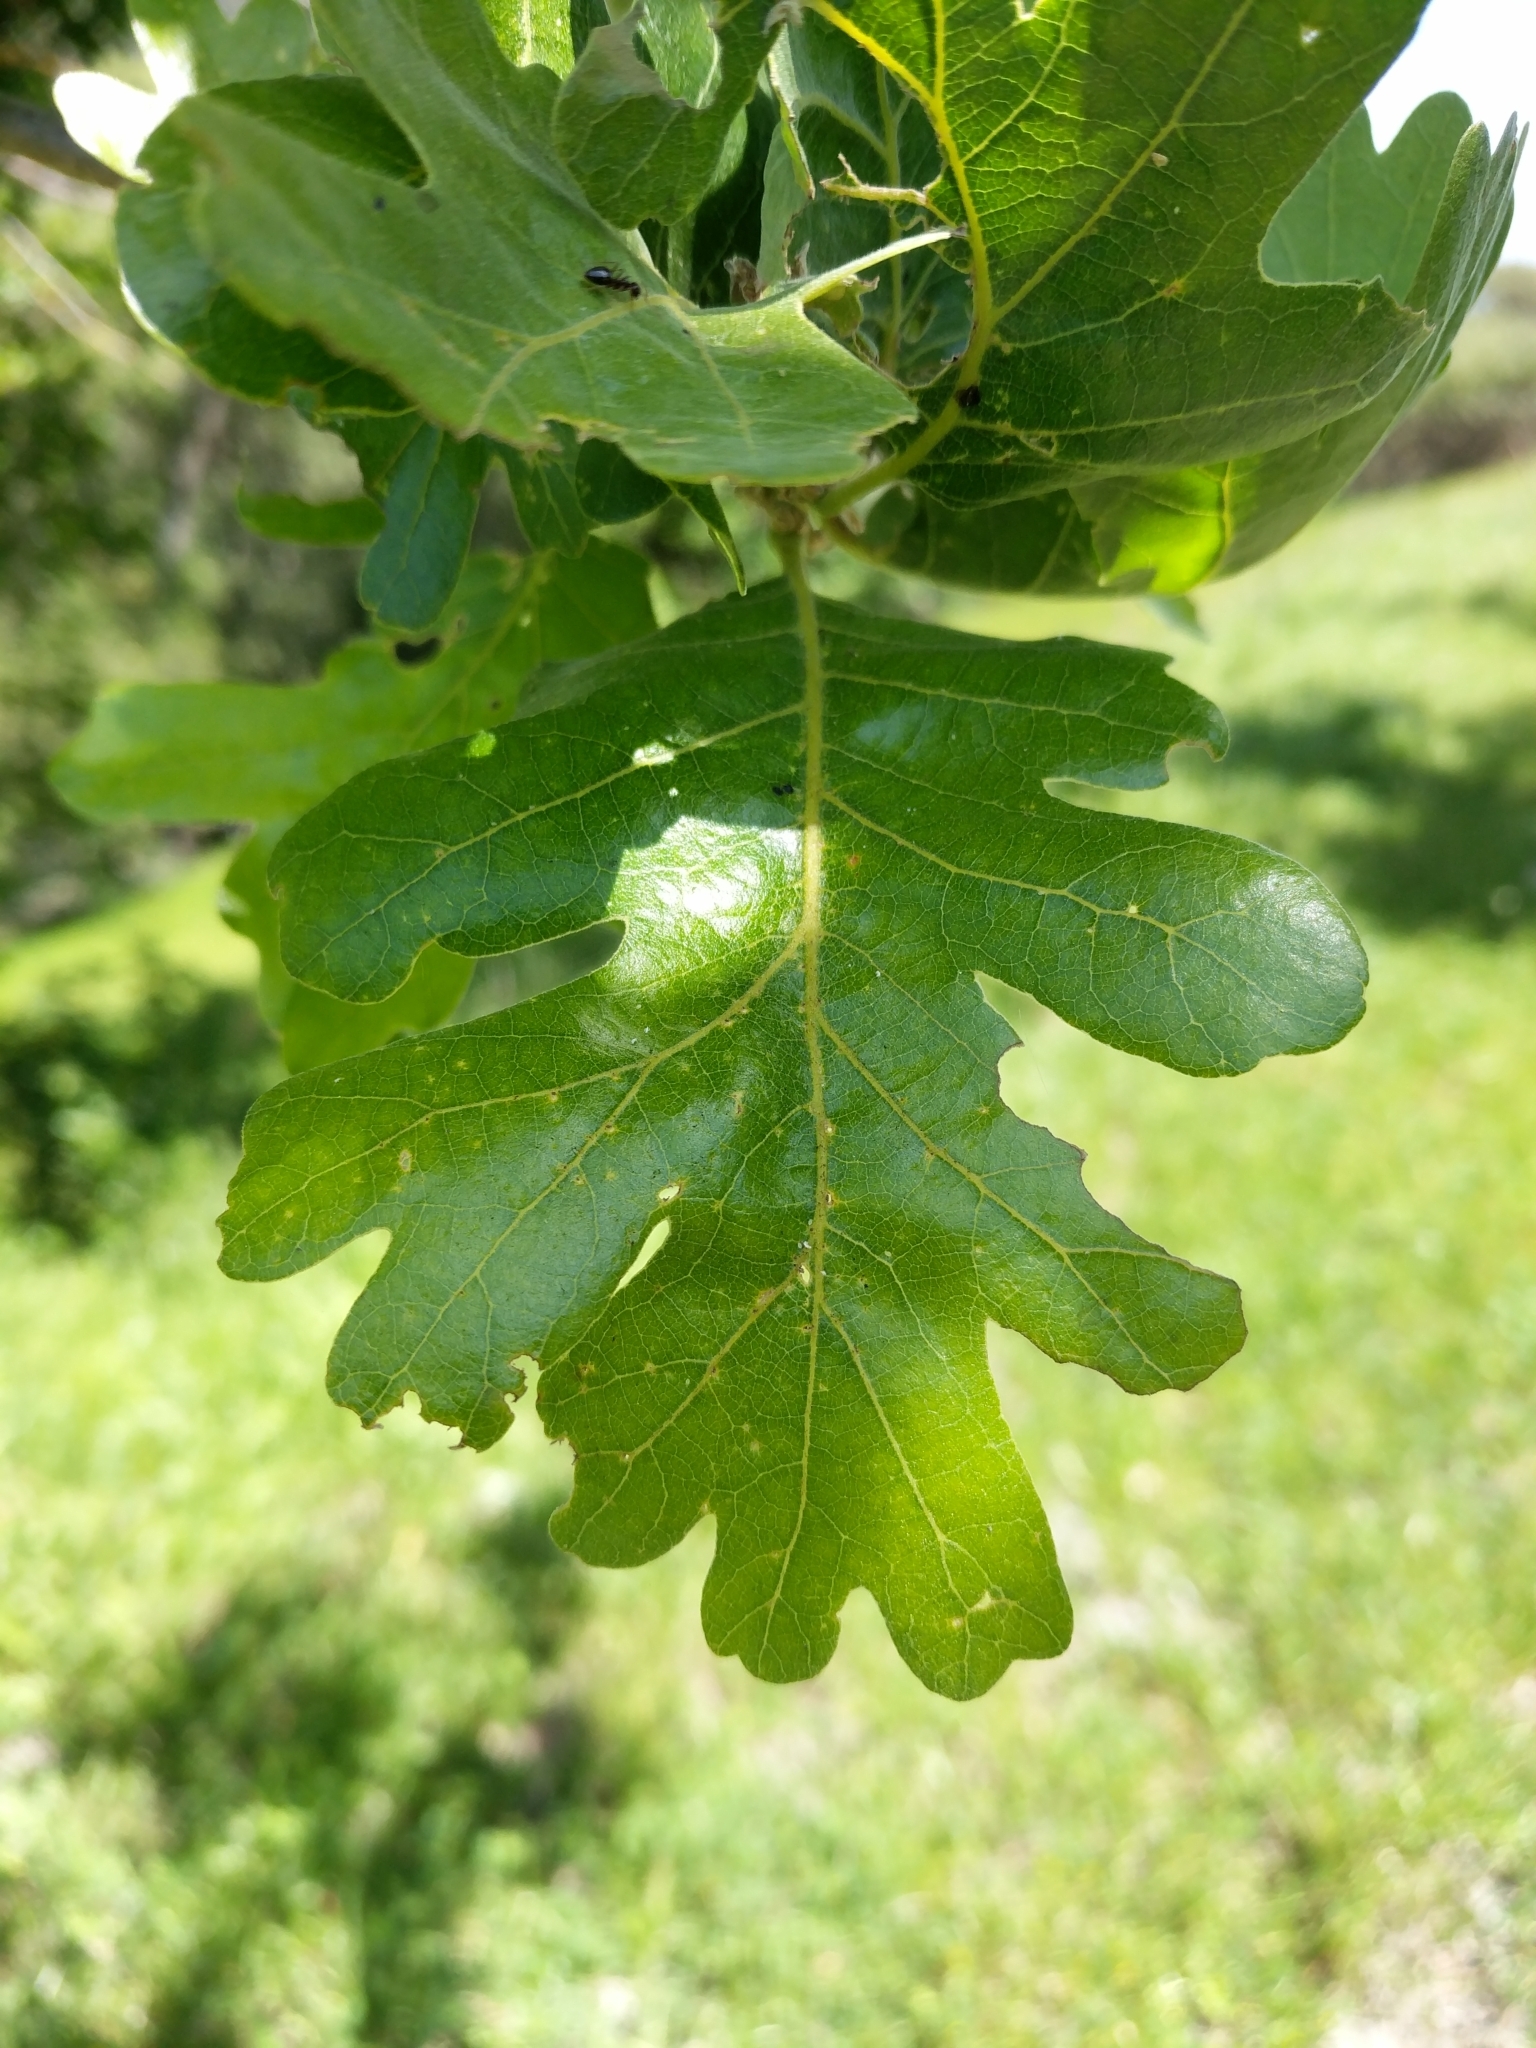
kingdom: Plantae
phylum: Tracheophyta
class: Magnoliopsida
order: Fagales
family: Fagaceae
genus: Quercus
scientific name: Quercus lobata
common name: Valley oak
